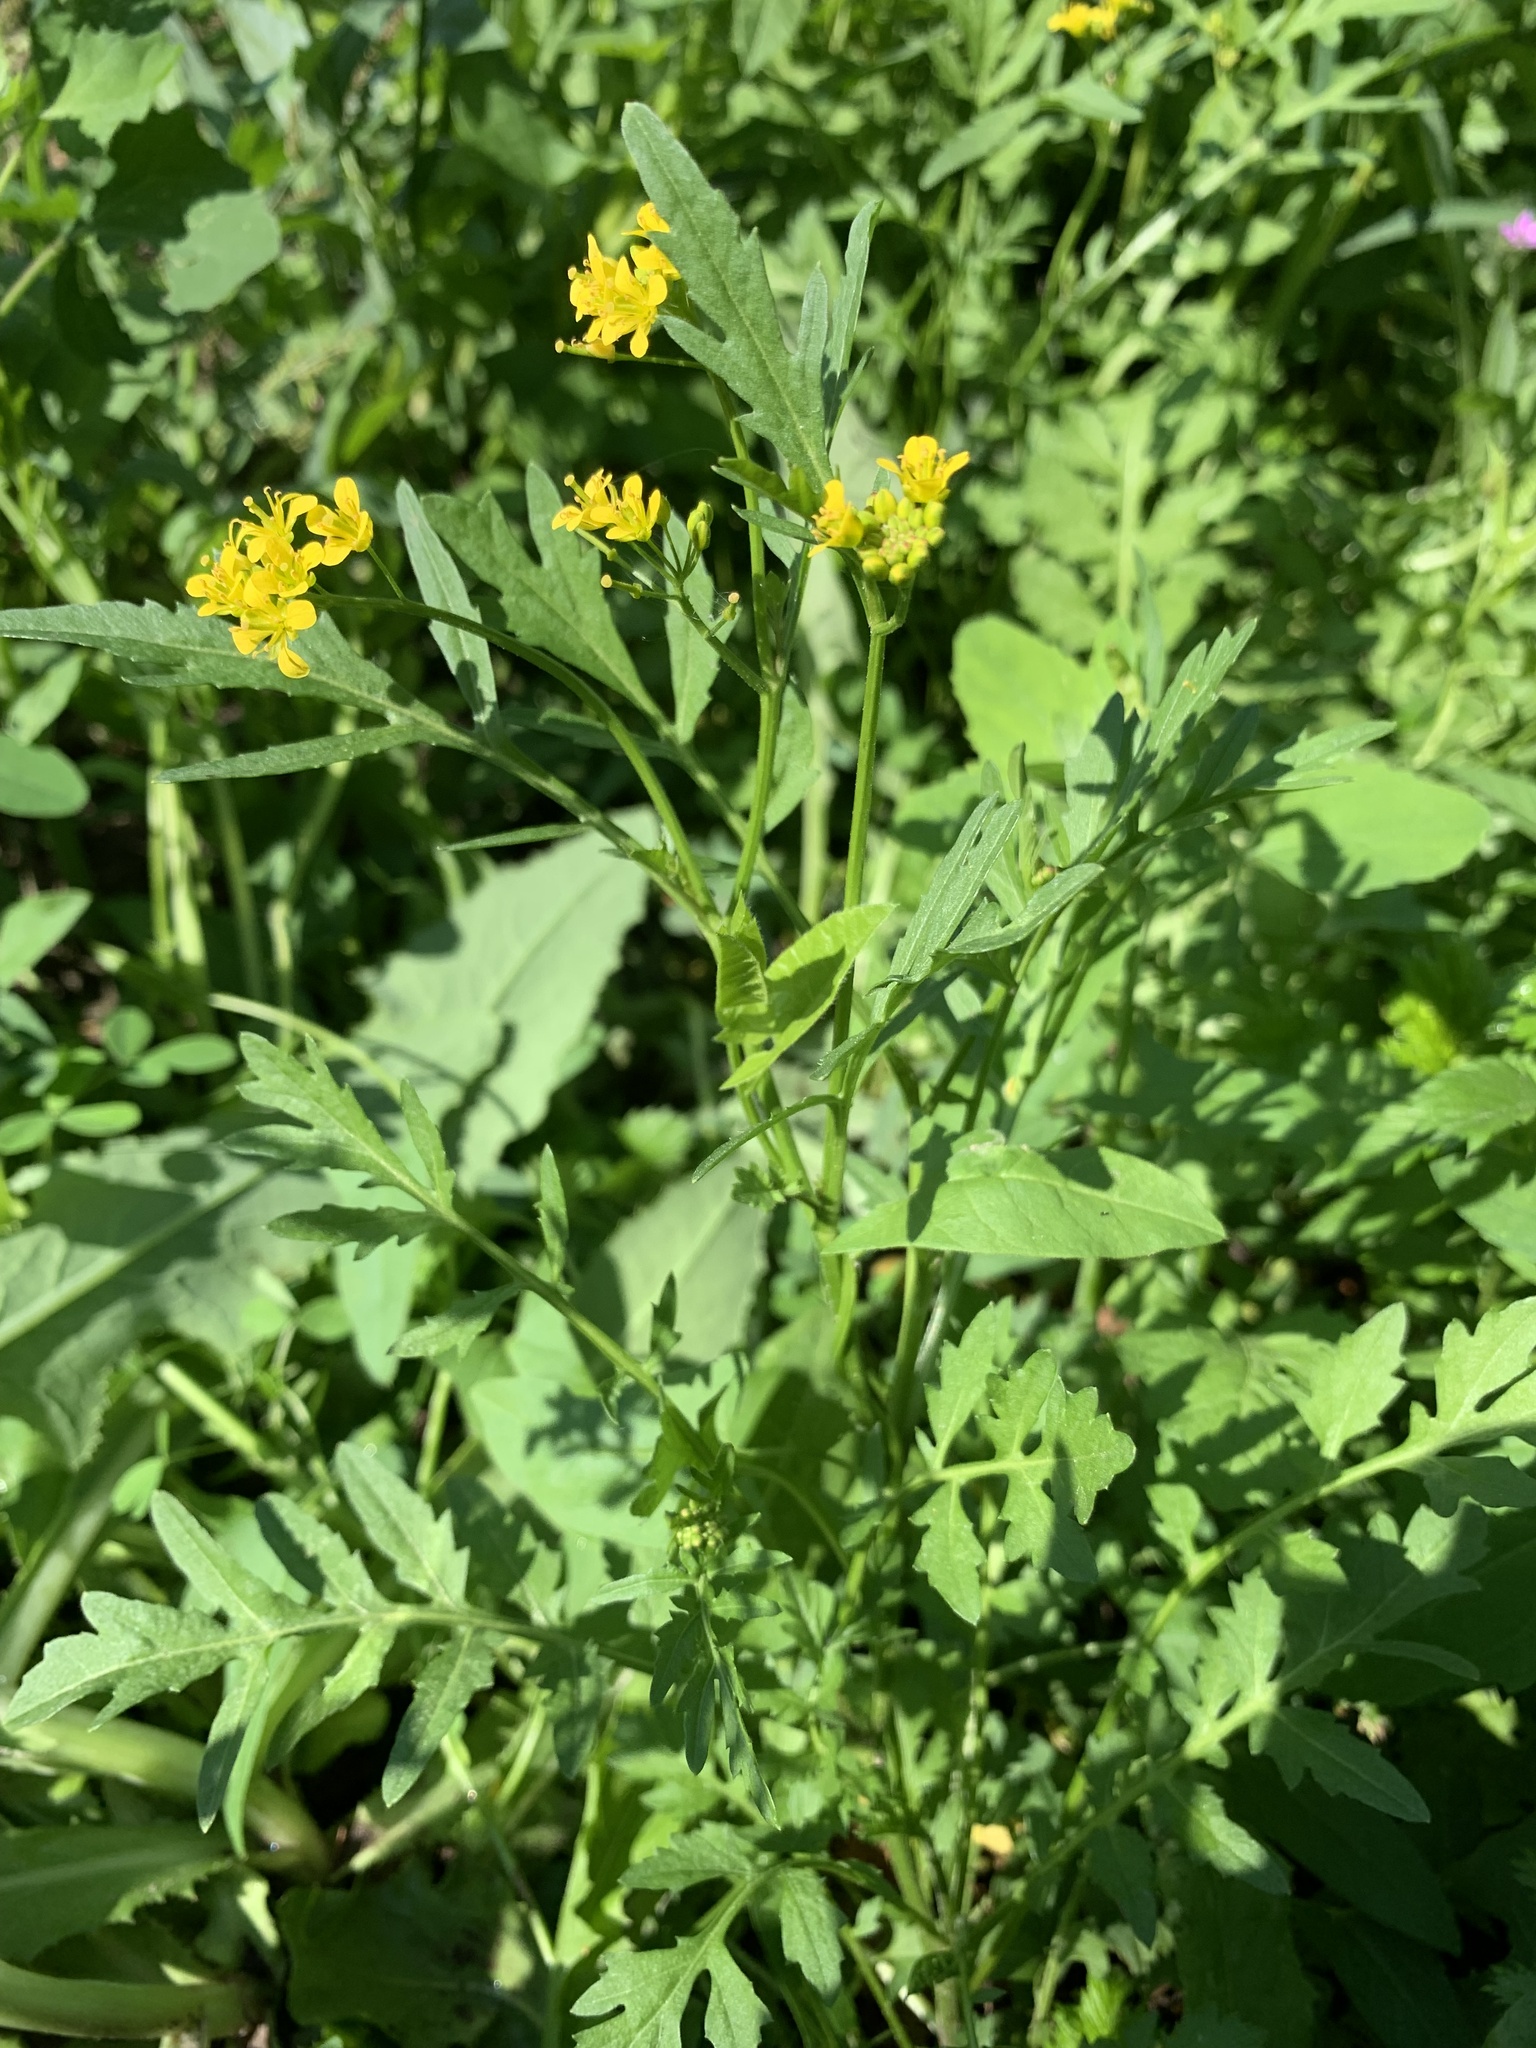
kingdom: Plantae
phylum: Tracheophyta
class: Magnoliopsida
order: Brassicales
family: Brassicaceae
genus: Rorippa
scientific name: Rorippa sylvestris
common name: Creeping yellowcress
